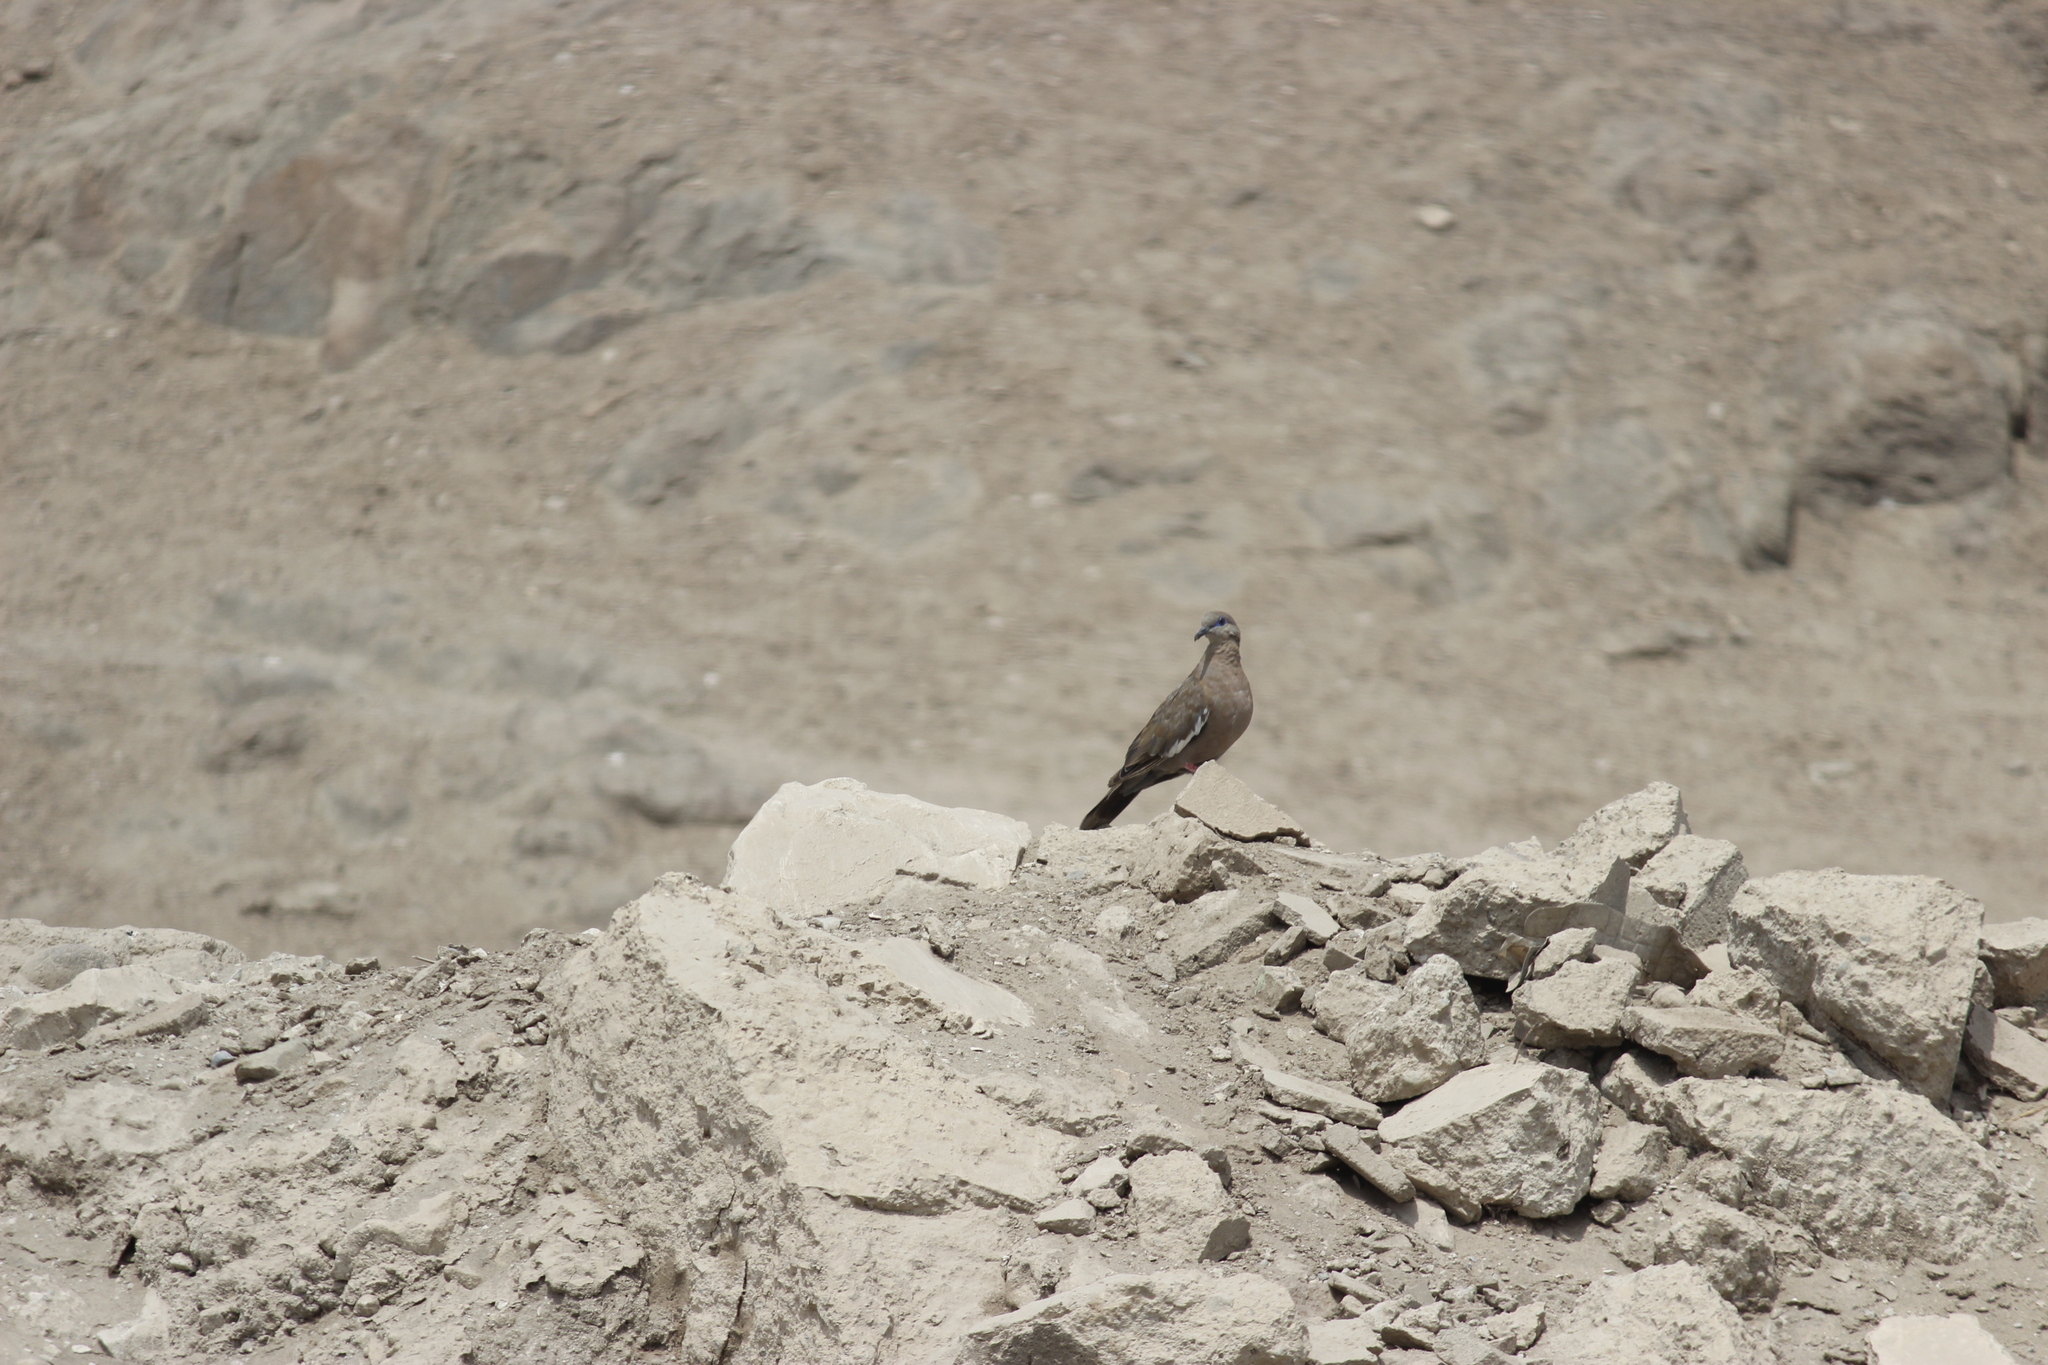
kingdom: Animalia
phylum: Chordata
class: Aves
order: Columbiformes
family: Columbidae
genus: Zenaida
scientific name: Zenaida meloda
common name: West peruvian dove
